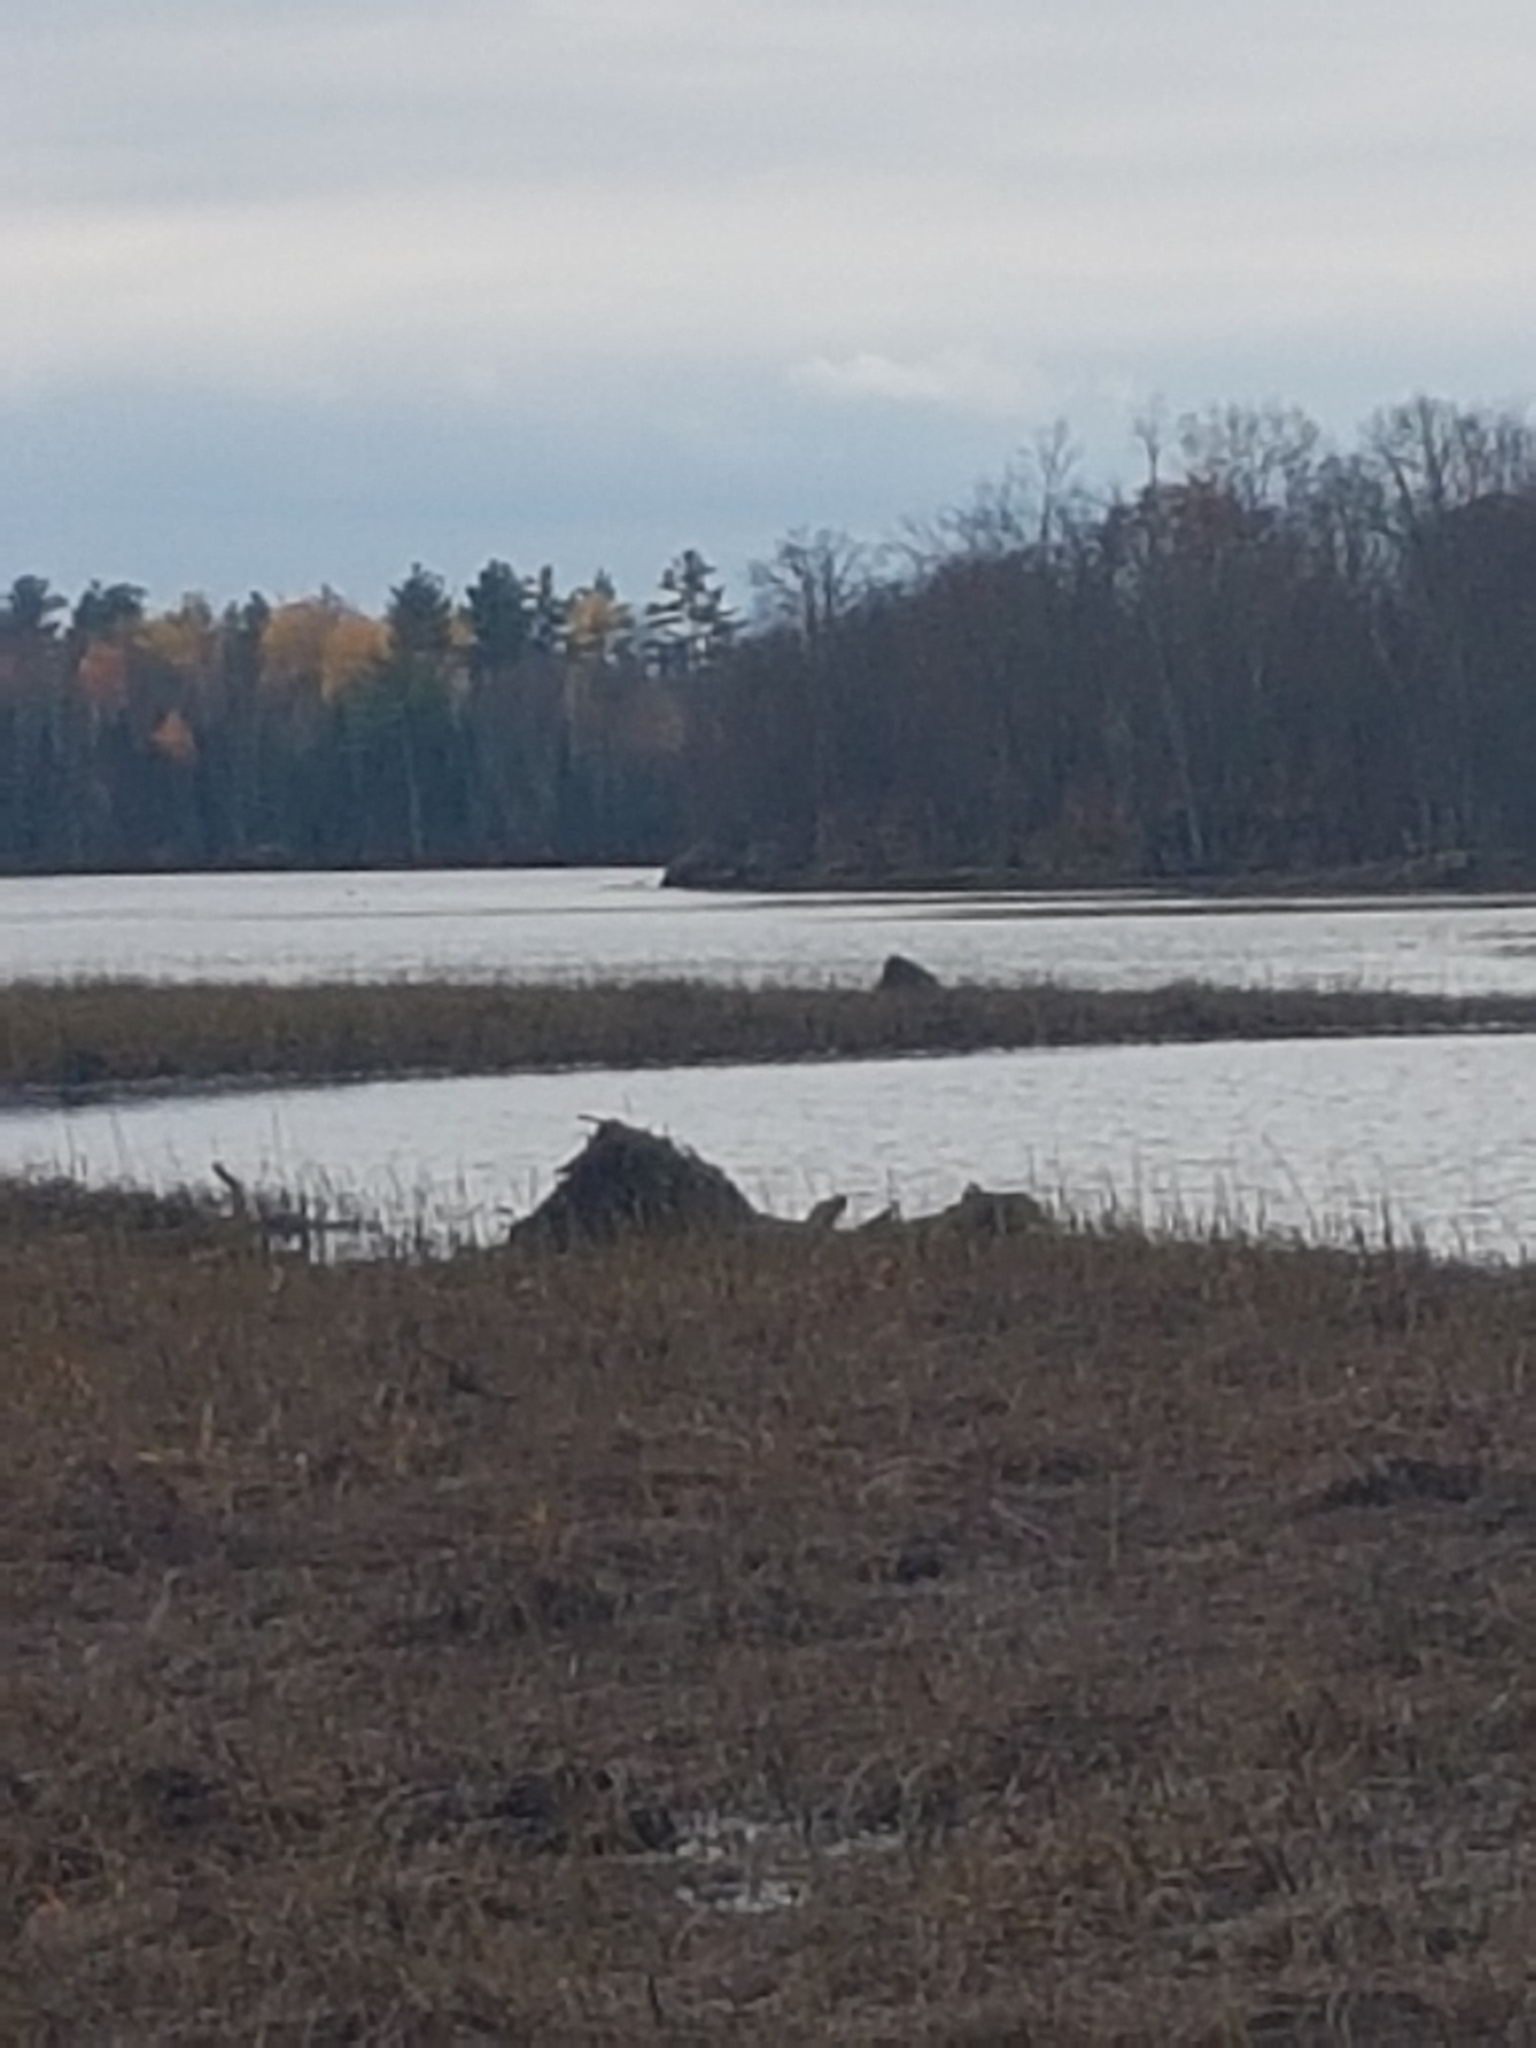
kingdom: Animalia
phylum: Chordata
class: Mammalia
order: Rodentia
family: Cricetidae
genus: Ondatra
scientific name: Ondatra zibethicus
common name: Muskrat
